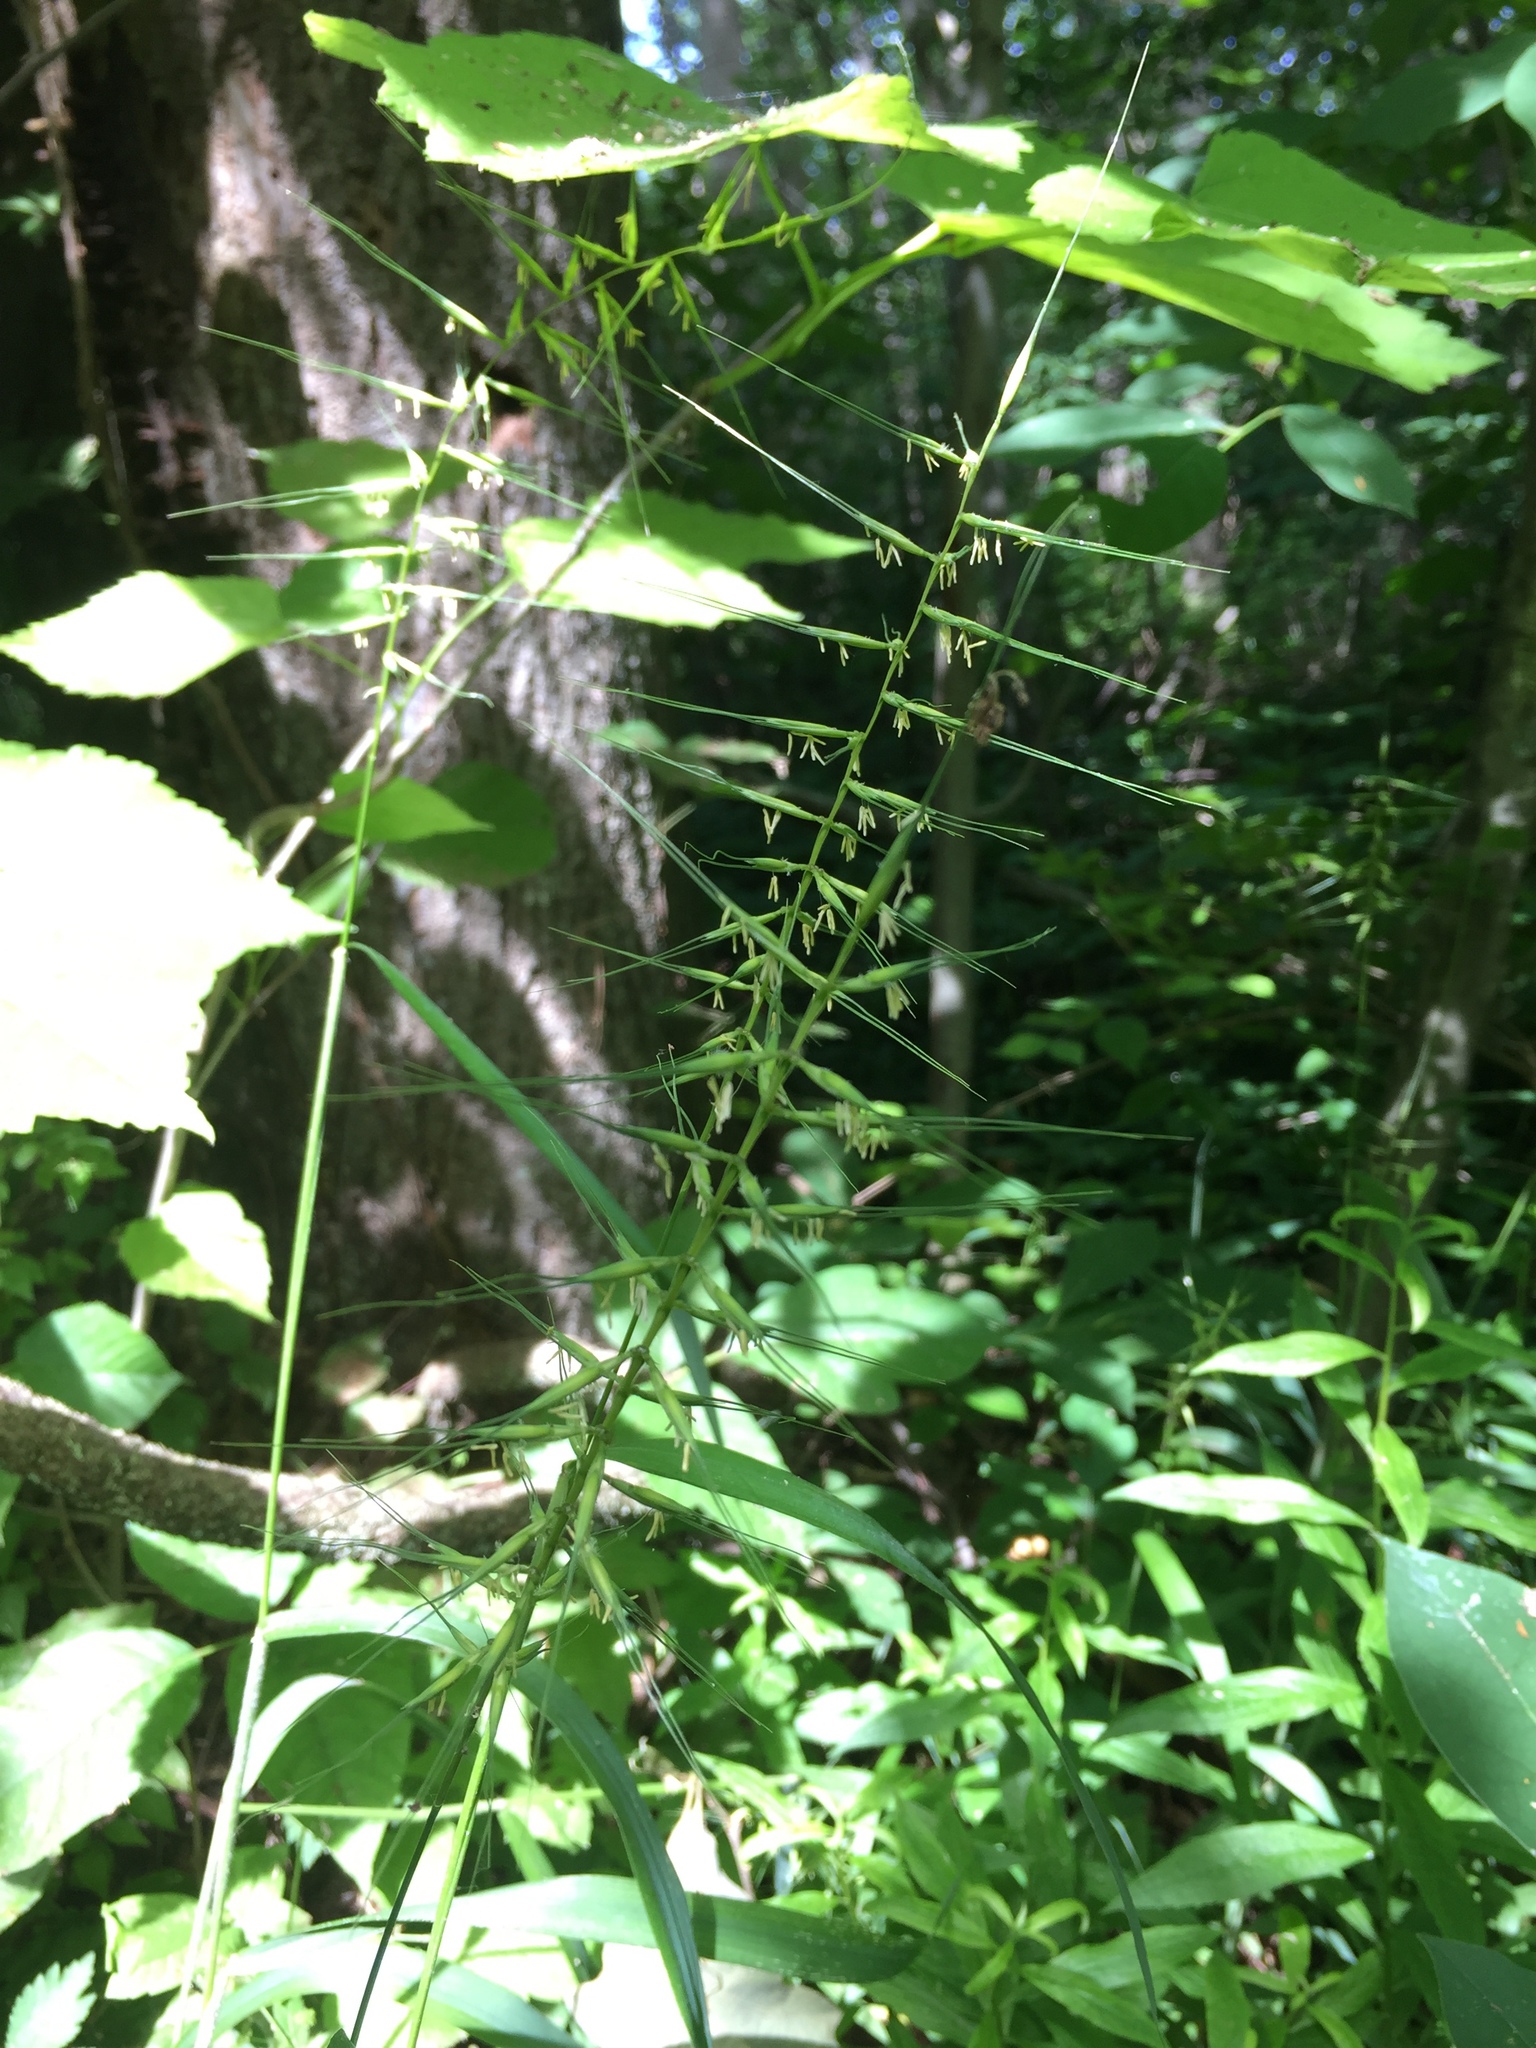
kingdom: Plantae
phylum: Tracheophyta
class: Liliopsida
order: Poales
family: Poaceae
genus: Elymus
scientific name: Elymus hystrix
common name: Bottlebrush grass
